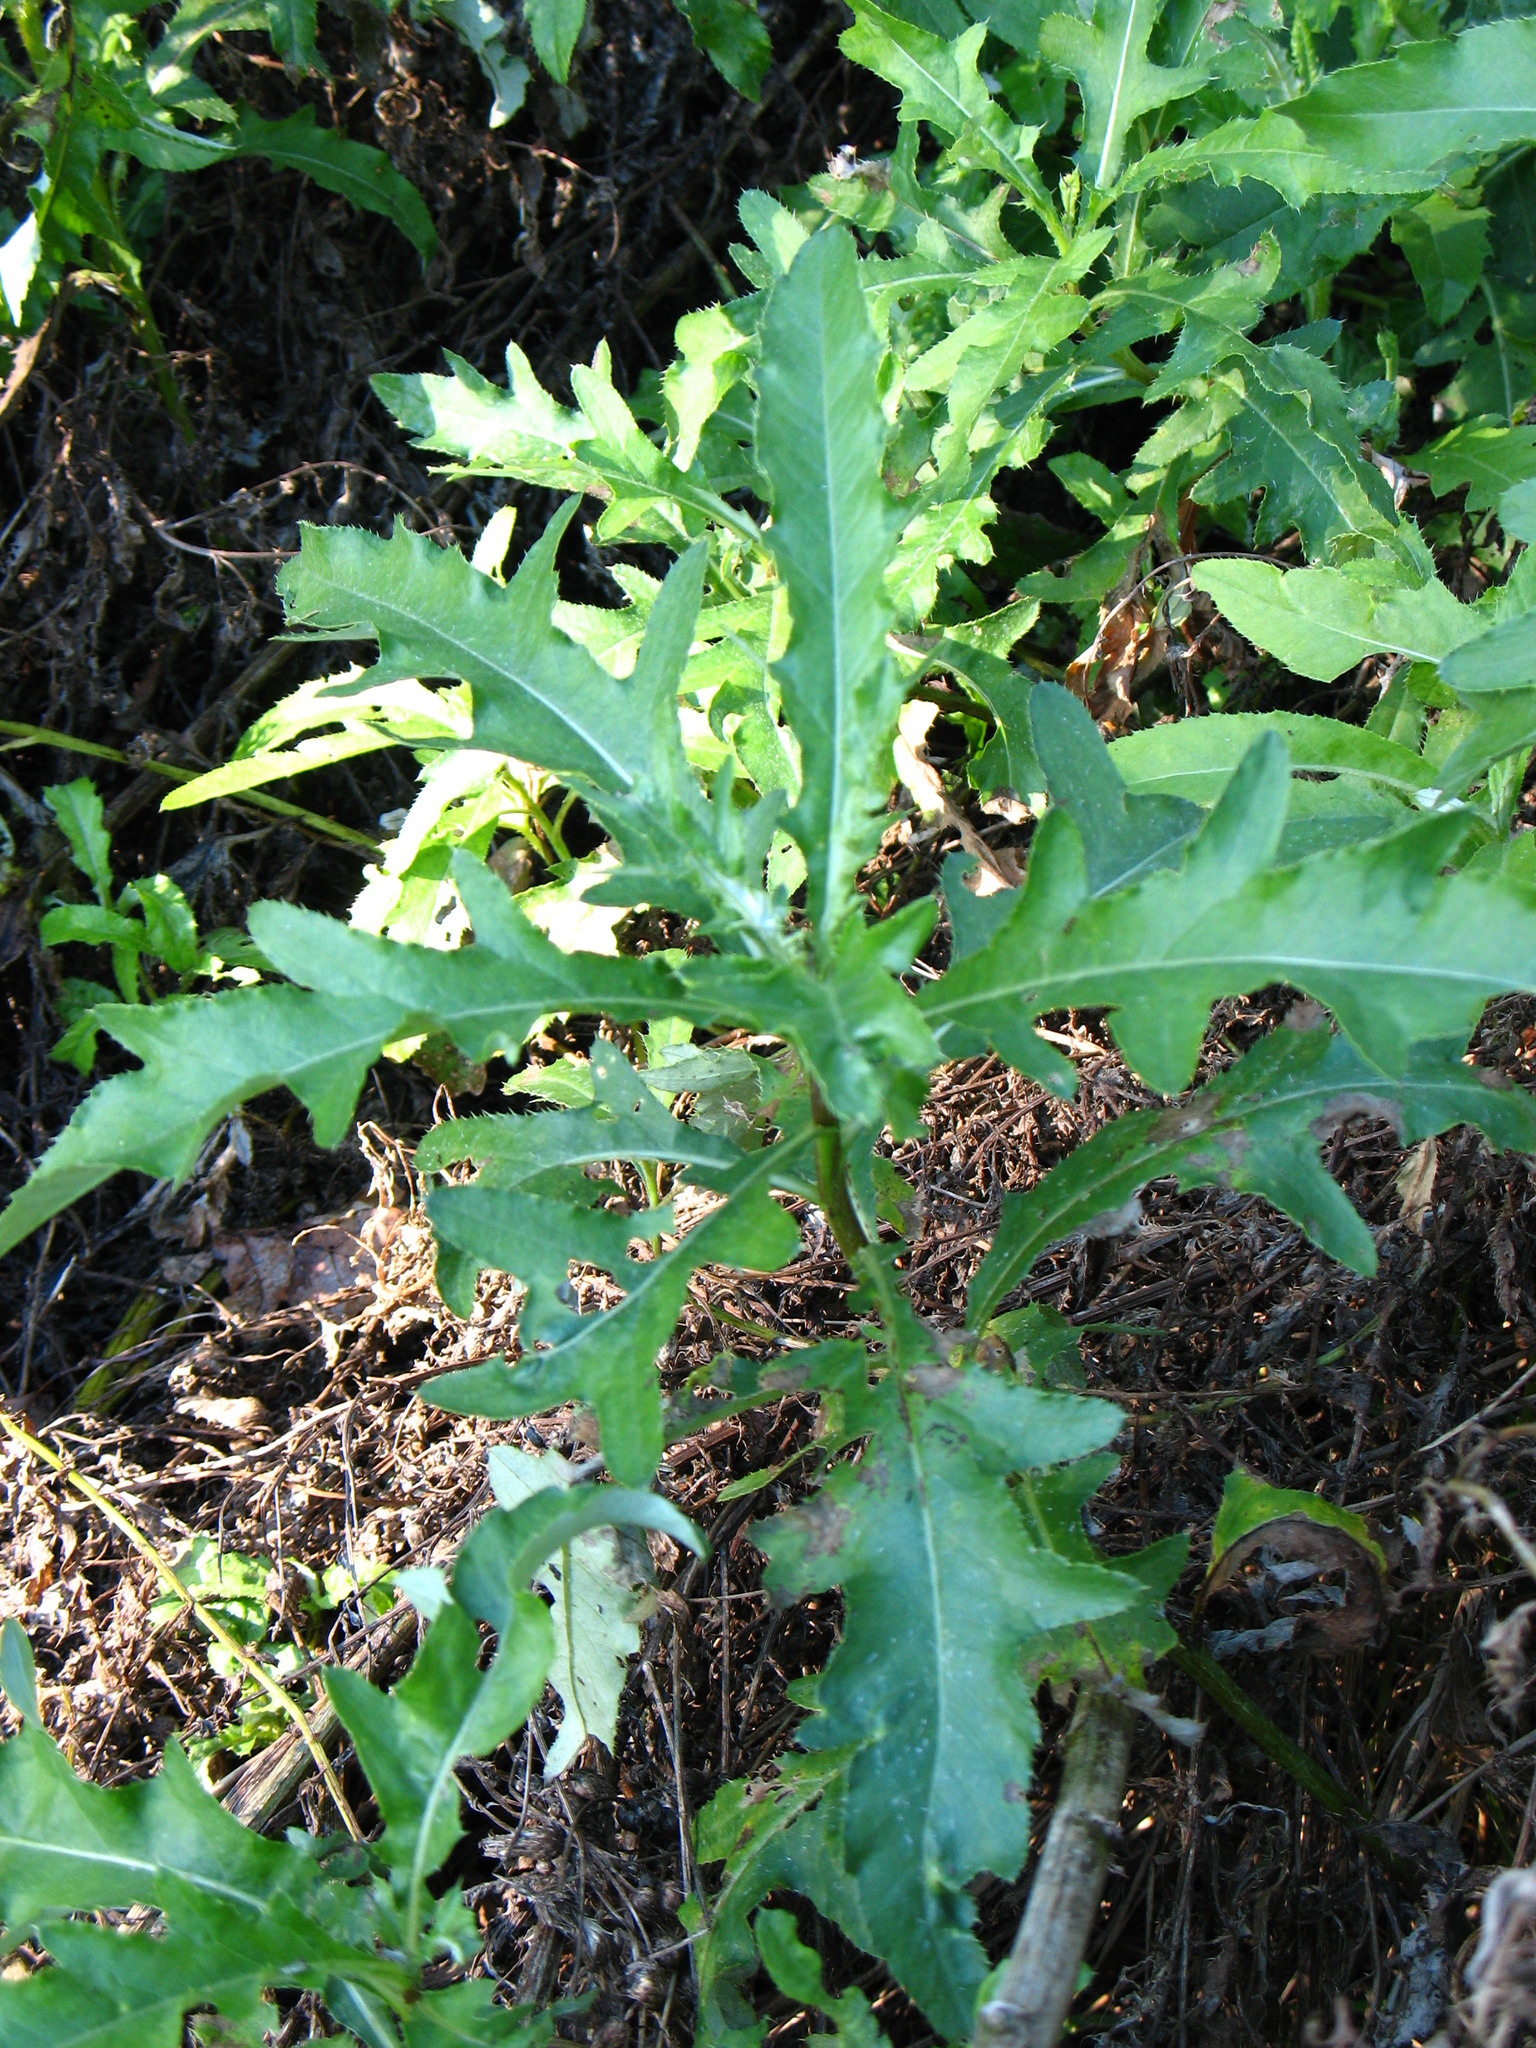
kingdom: Plantae
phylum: Tracheophyta
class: Magnoliopsida
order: Asterales
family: Asteraceae
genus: Cirsium
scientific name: Cirsium arvense
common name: Creeping thistle
